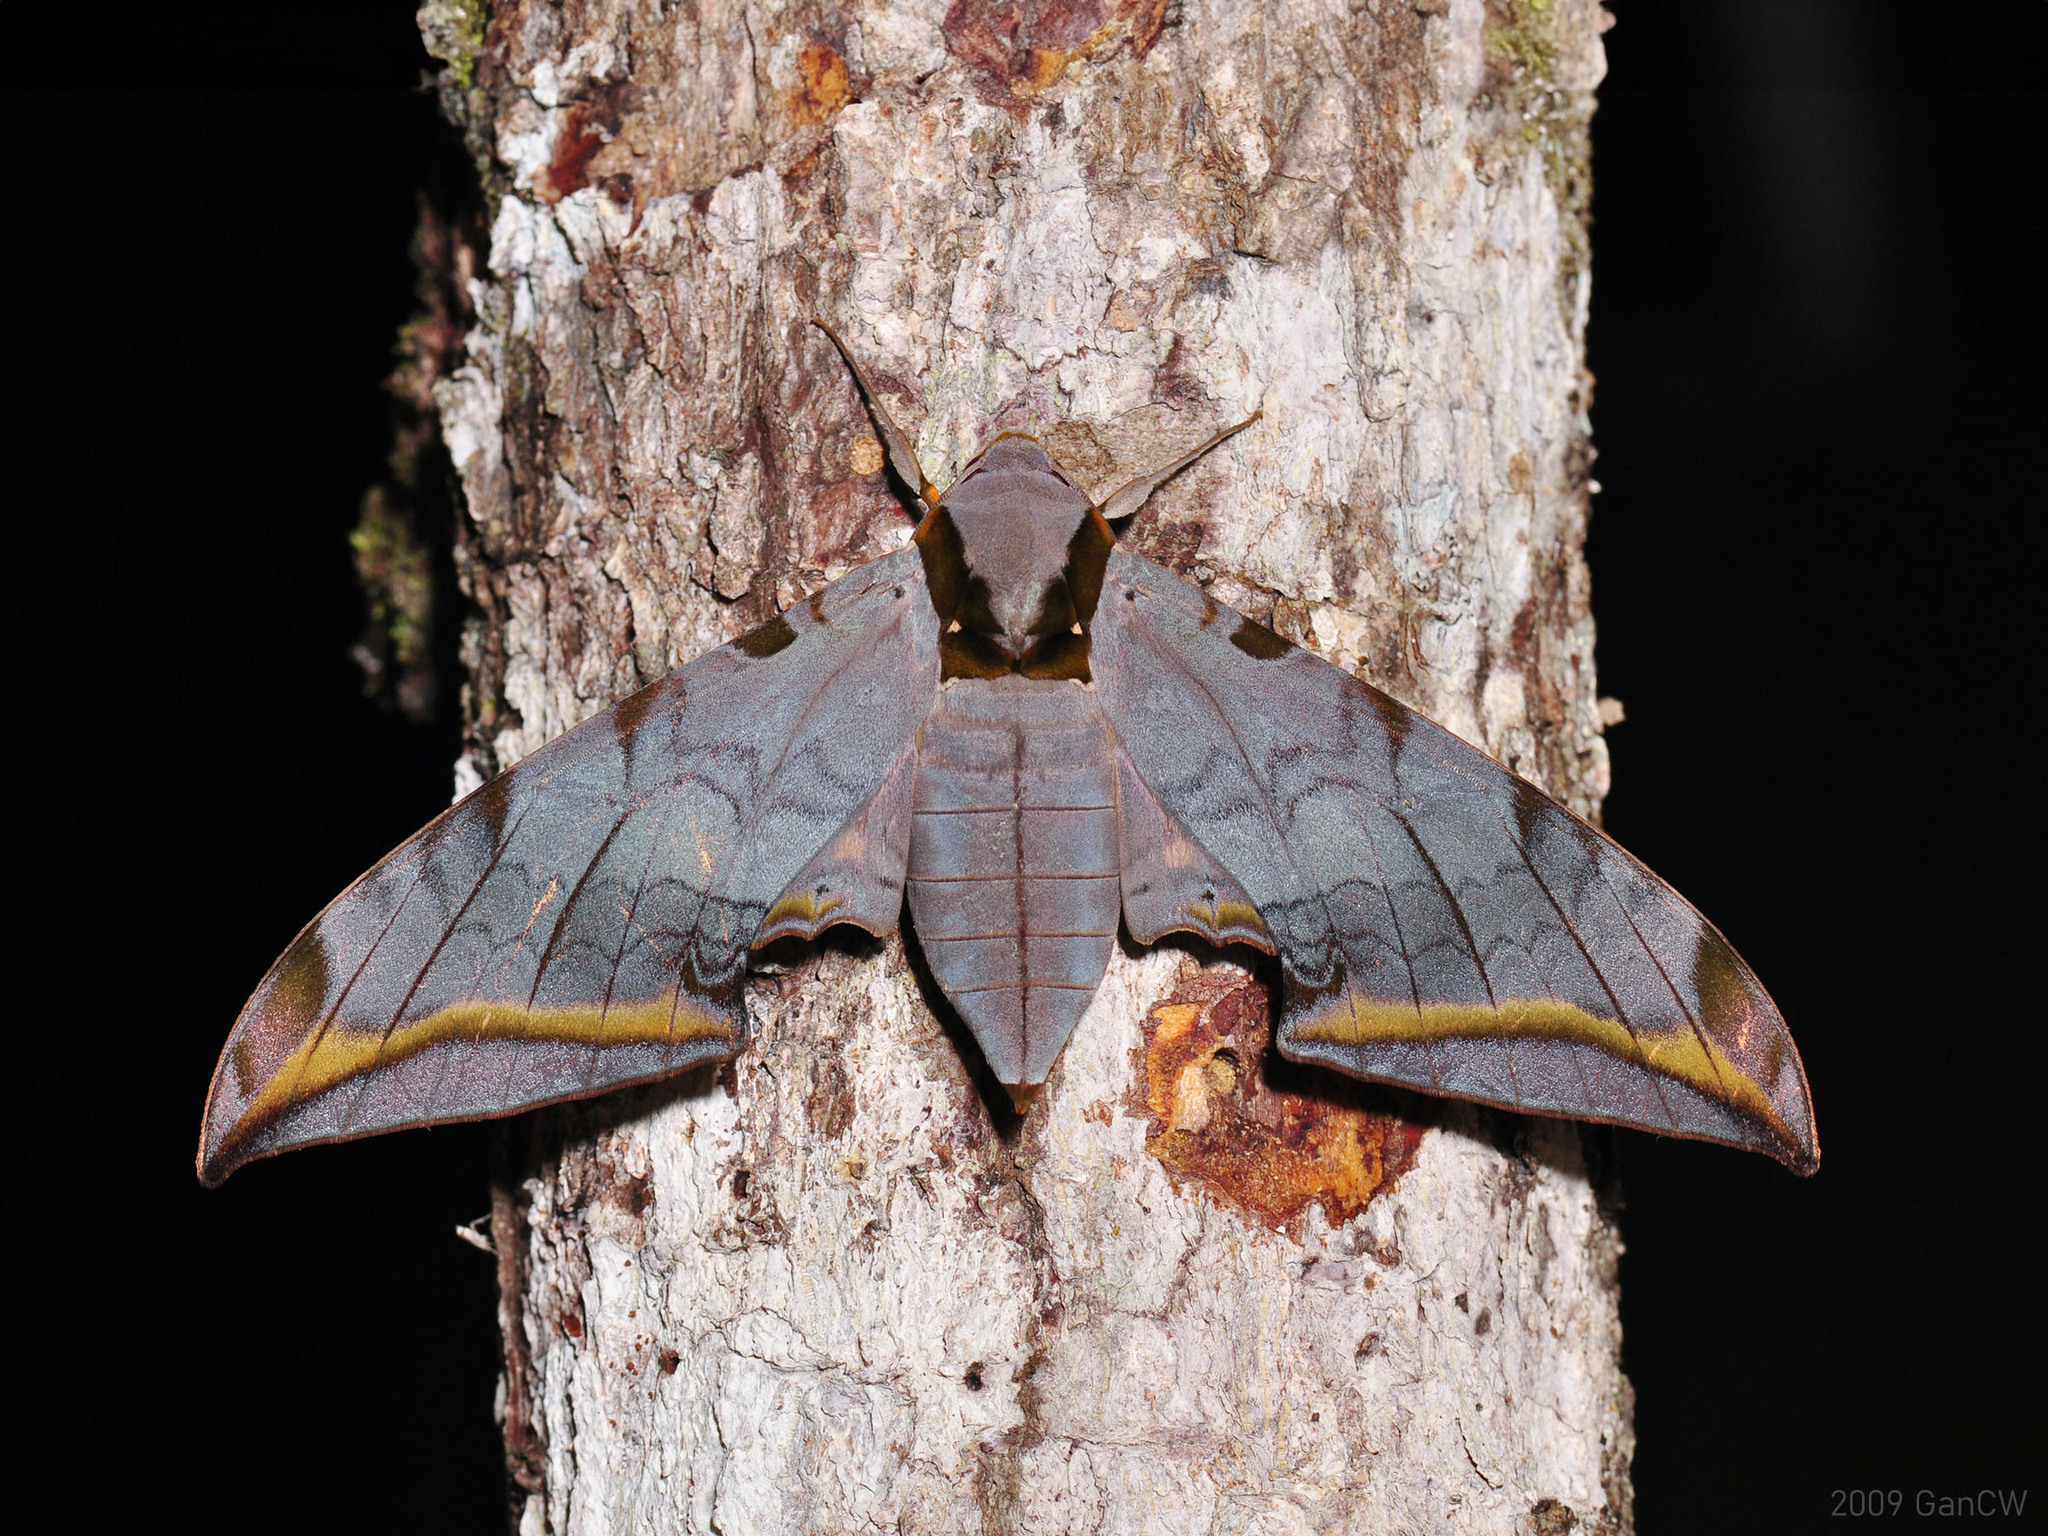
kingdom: Animalia
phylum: Arthropoda
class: Insecta
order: Lepidoptera
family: Sphingidae
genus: Ambulyx
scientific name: Ambulyx sericeipennis
